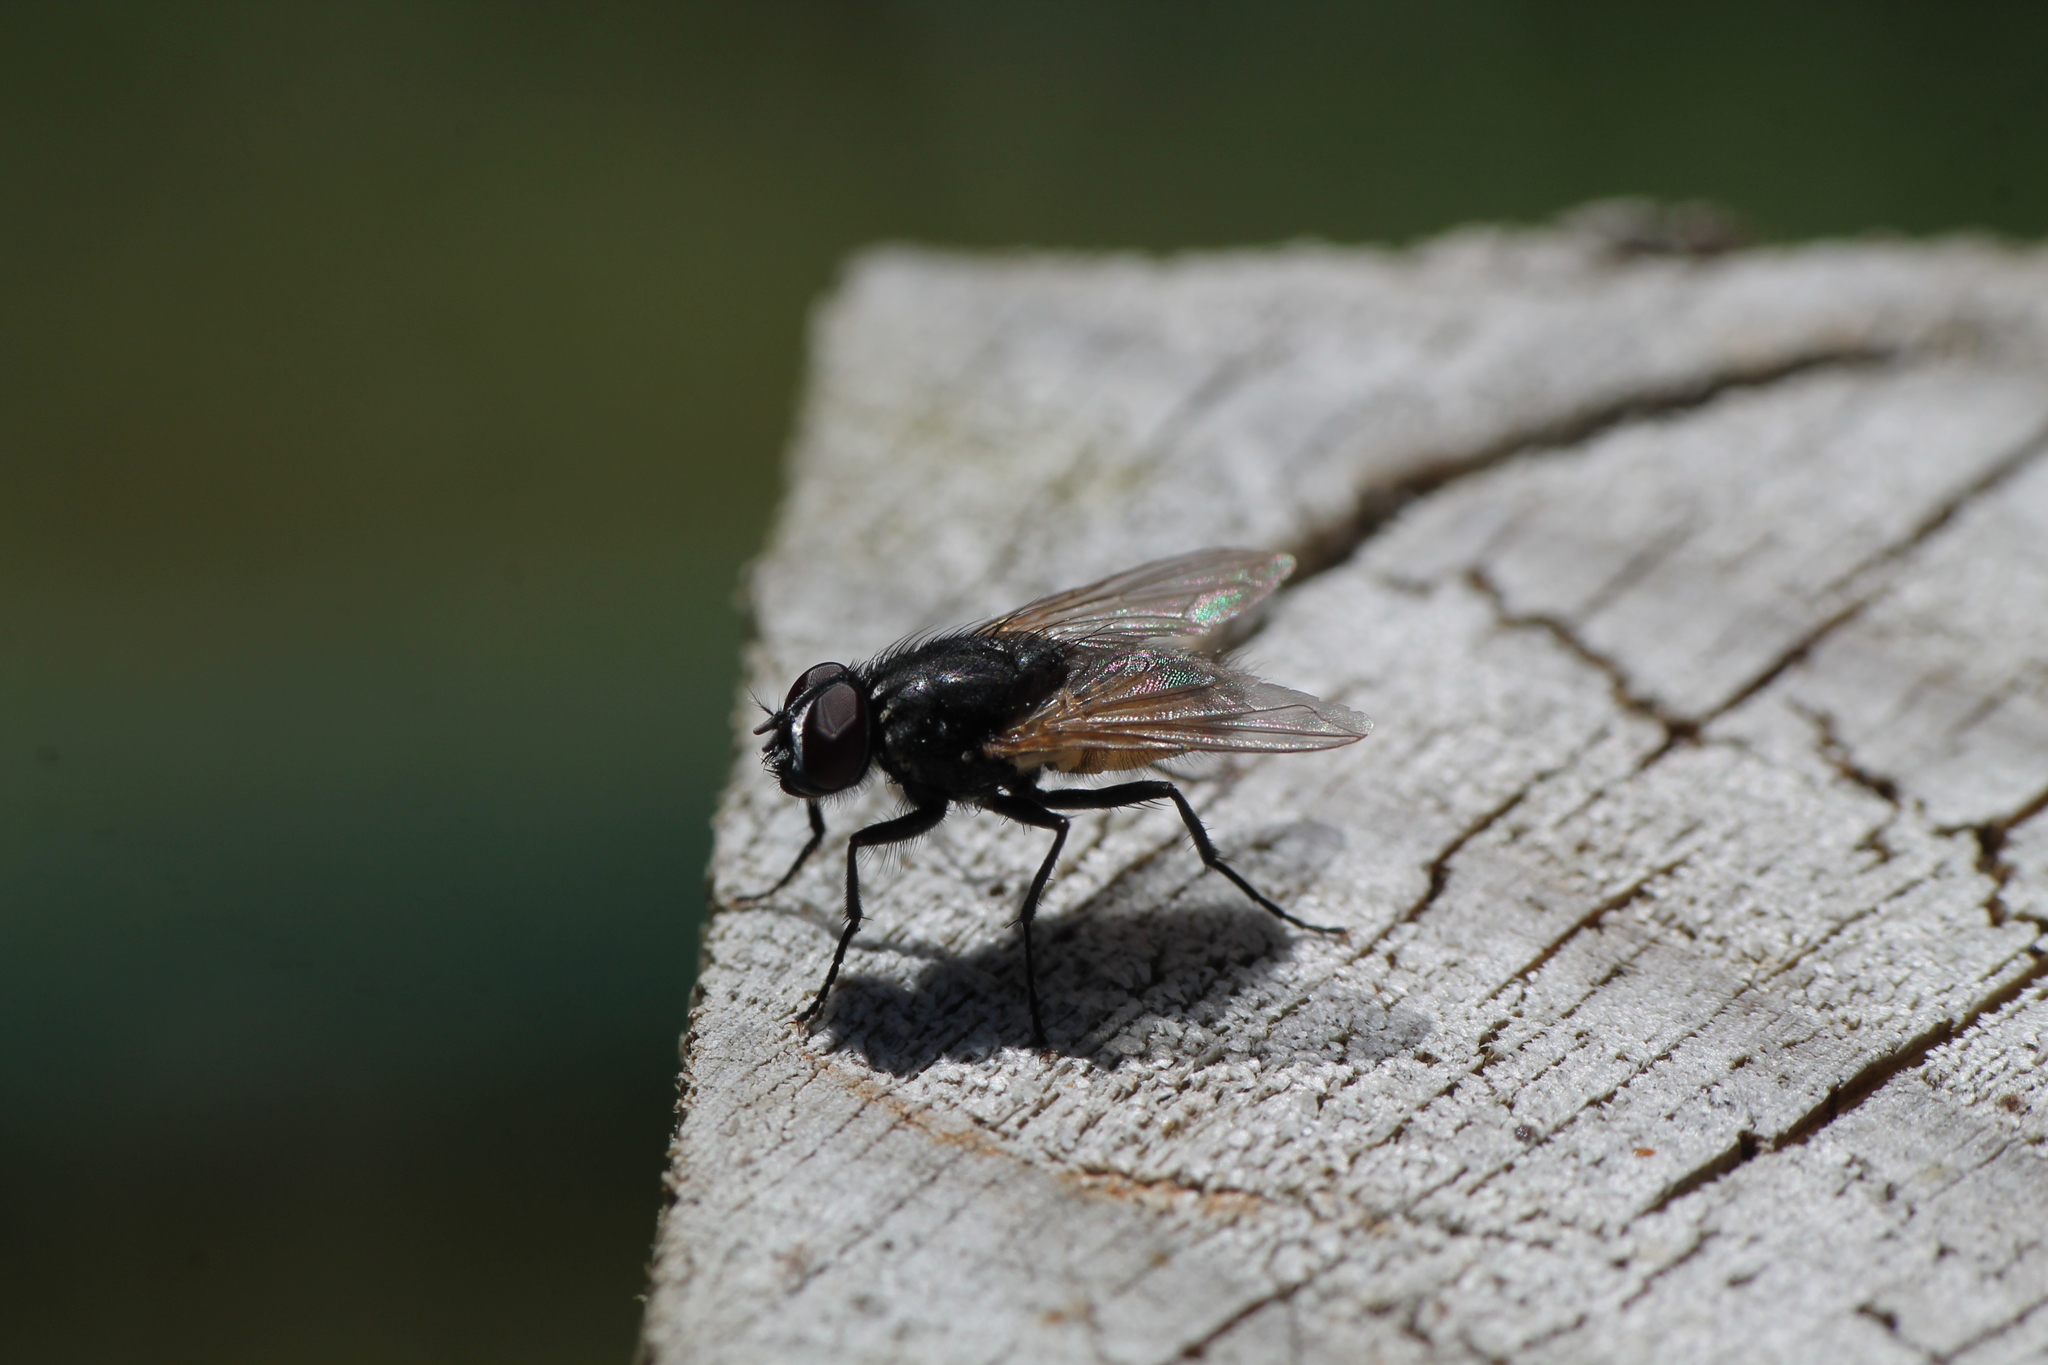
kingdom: Animalia
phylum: Arthropoda
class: Insecta
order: Diptera
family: Muscidae
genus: Musca
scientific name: Musca domestica
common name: House fly
